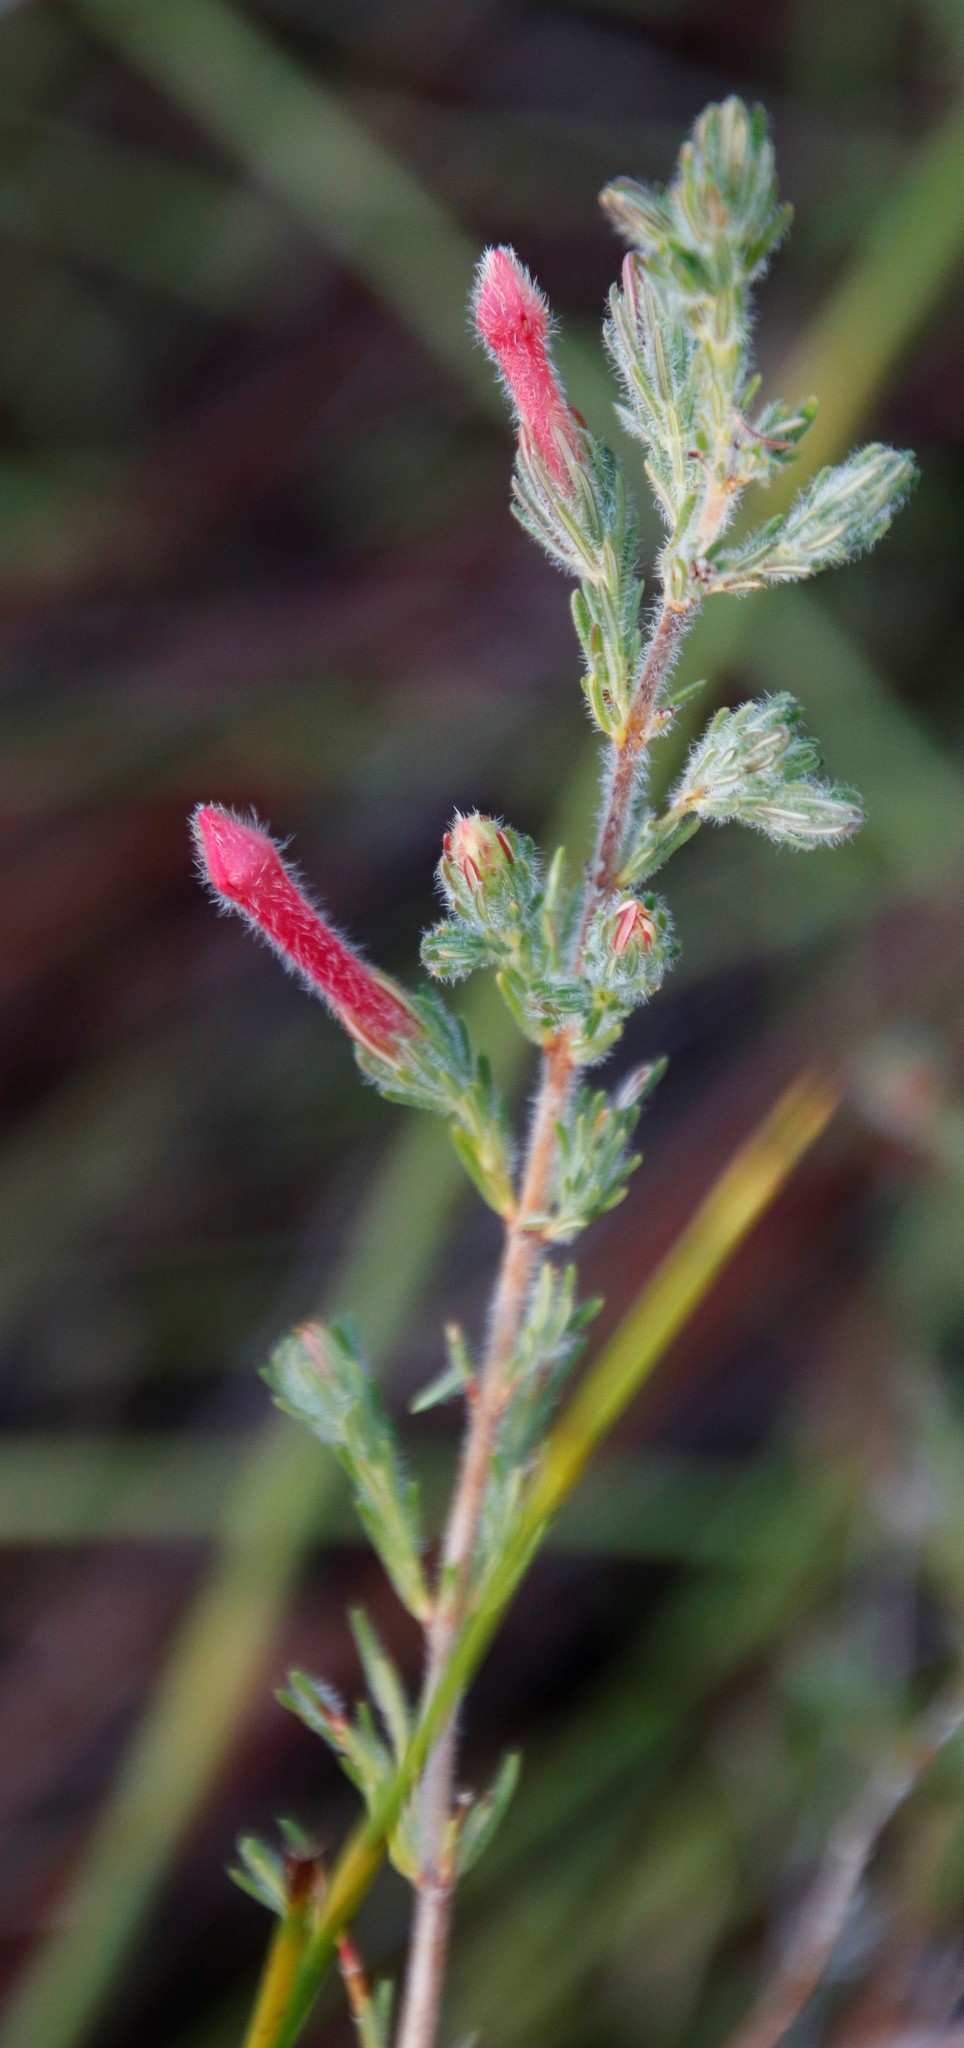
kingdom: Plantae
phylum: Tracheophyta
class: Magnoliopsida
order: Ericales
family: Ericaceae
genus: Erica
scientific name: Erica curviflora
